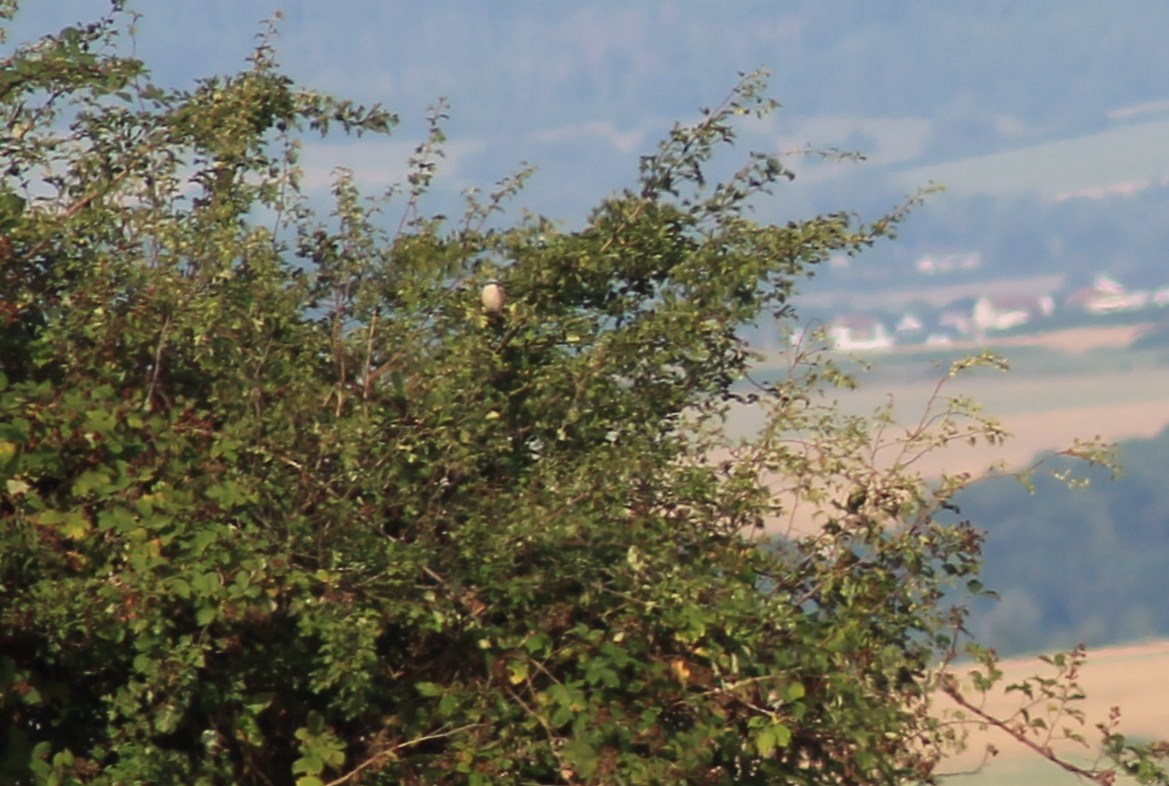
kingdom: Animalia
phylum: Chordata
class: Aves
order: Passeriformes
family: Laniidae
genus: Lanius
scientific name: Lanius collurio
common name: Red-backed shrike
